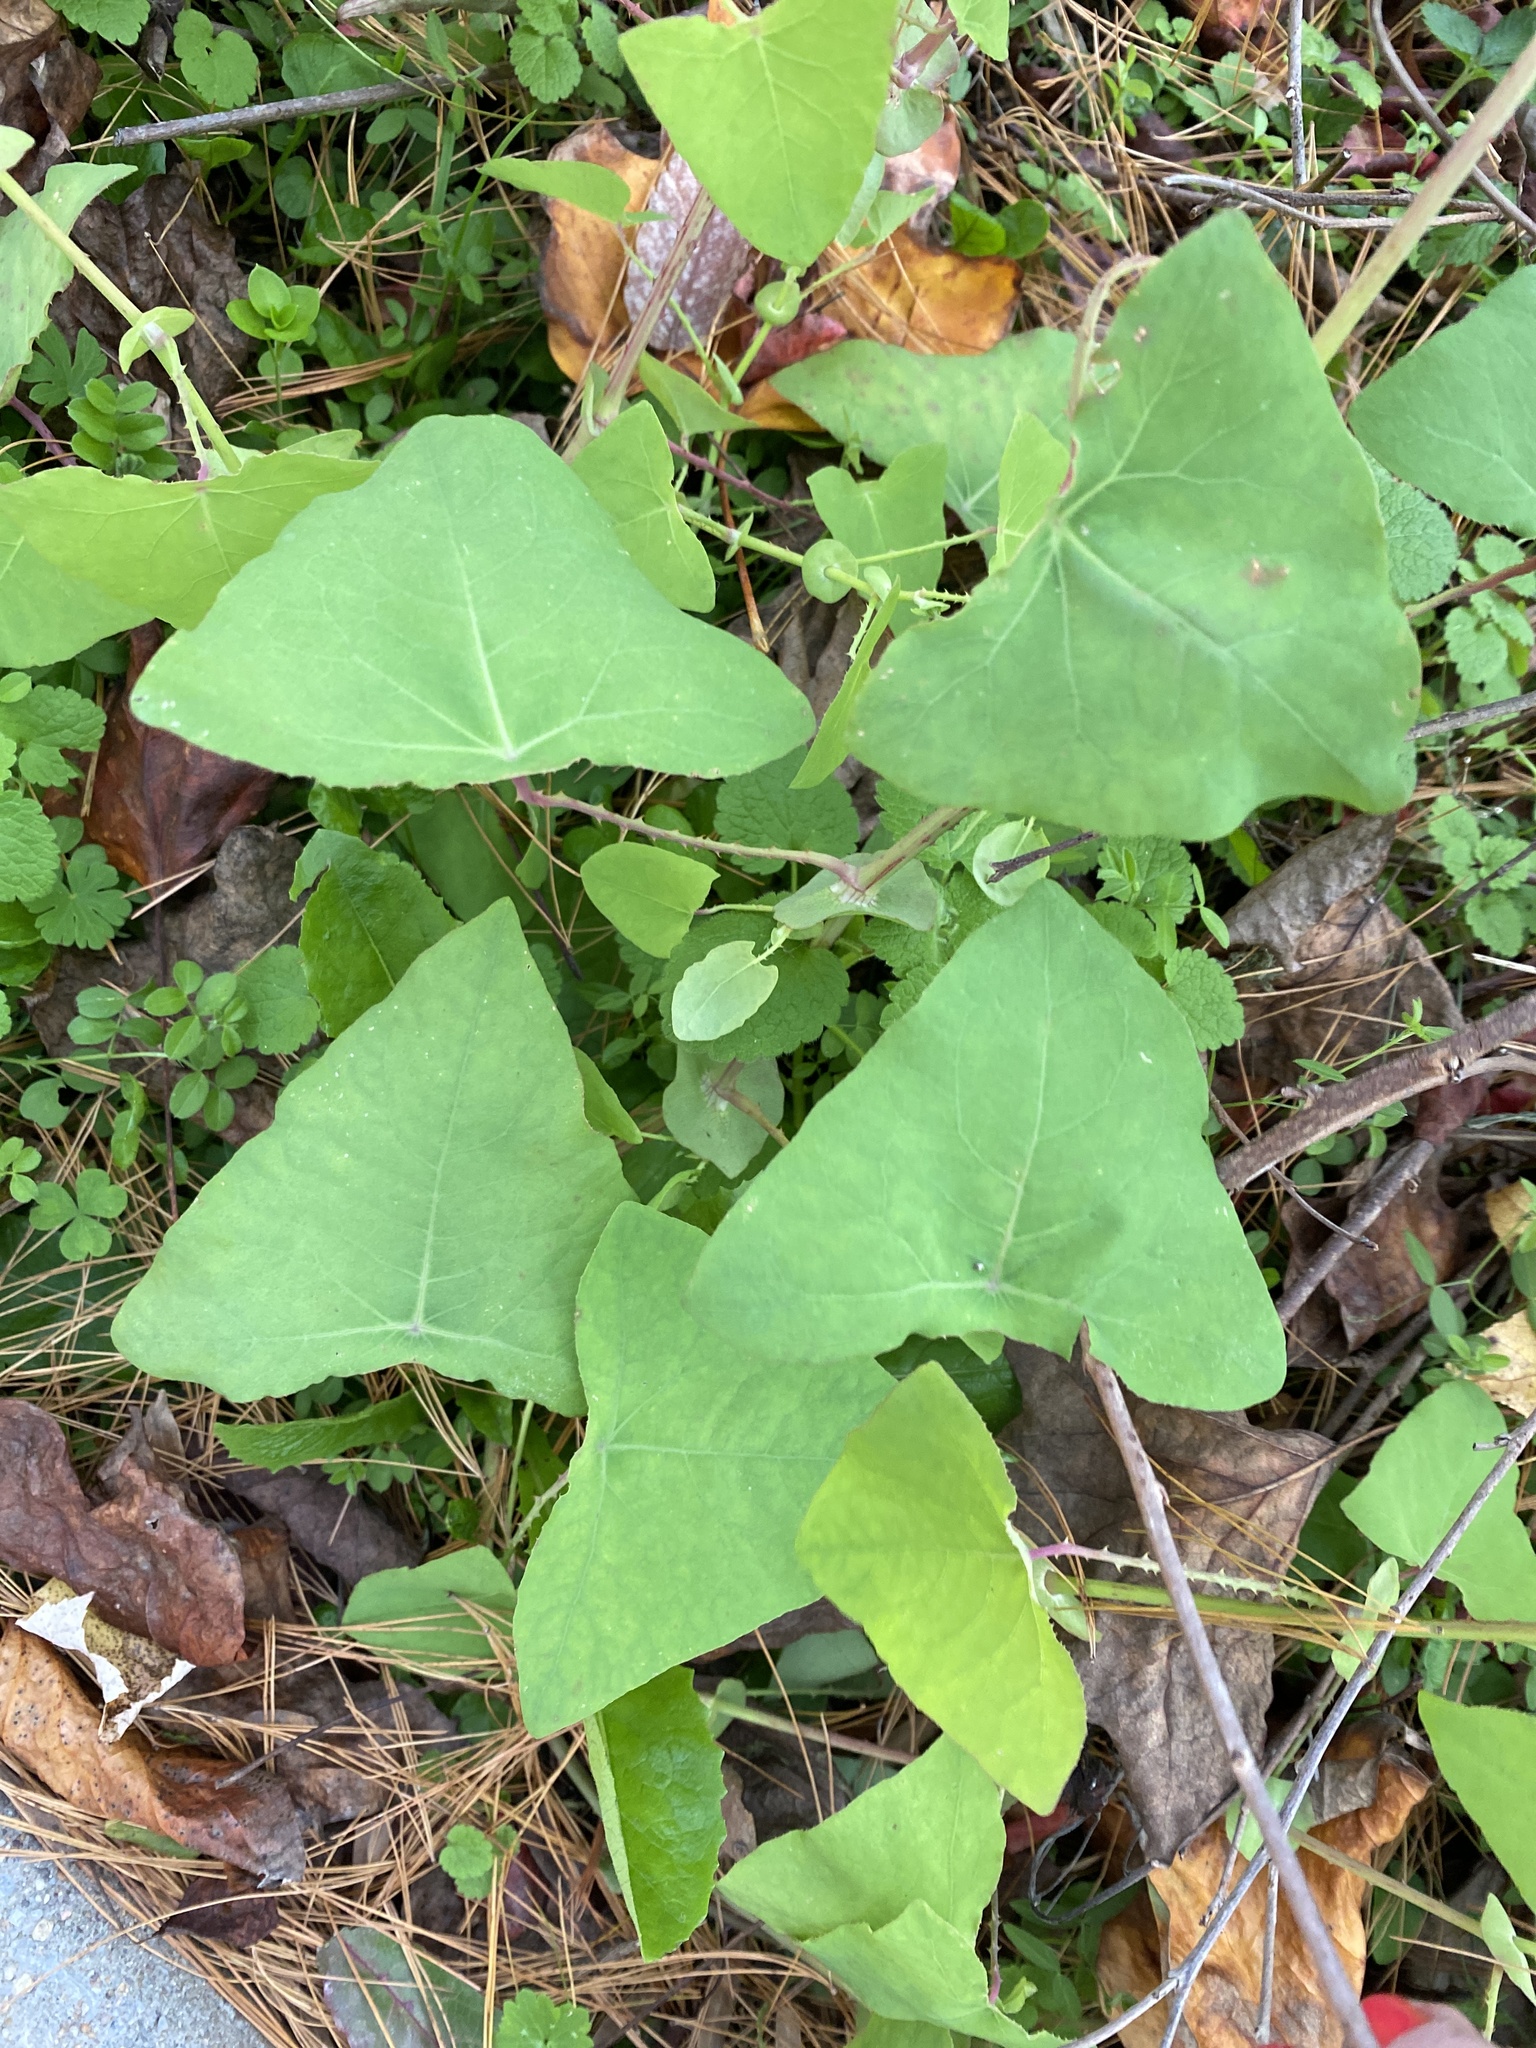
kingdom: Plantae
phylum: Tracheophyta
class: Magnoliopsida
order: Caryophyllales
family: Polygonaceae
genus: Persicaria
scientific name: Persicaria perfoliata
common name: Asiatic tearthumb
